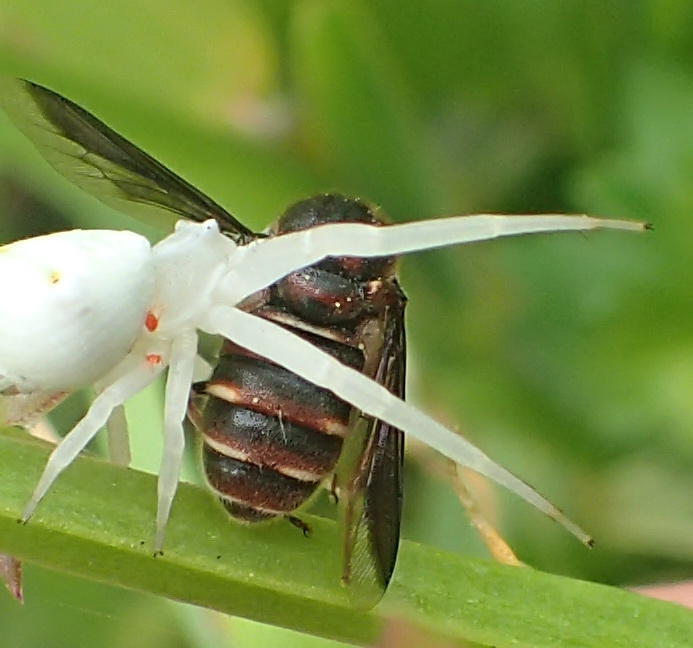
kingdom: Animalia
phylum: Arthropoda
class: Insecta
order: Diptera
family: Acroceridae
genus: Thyllis
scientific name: Thyllis crassa
